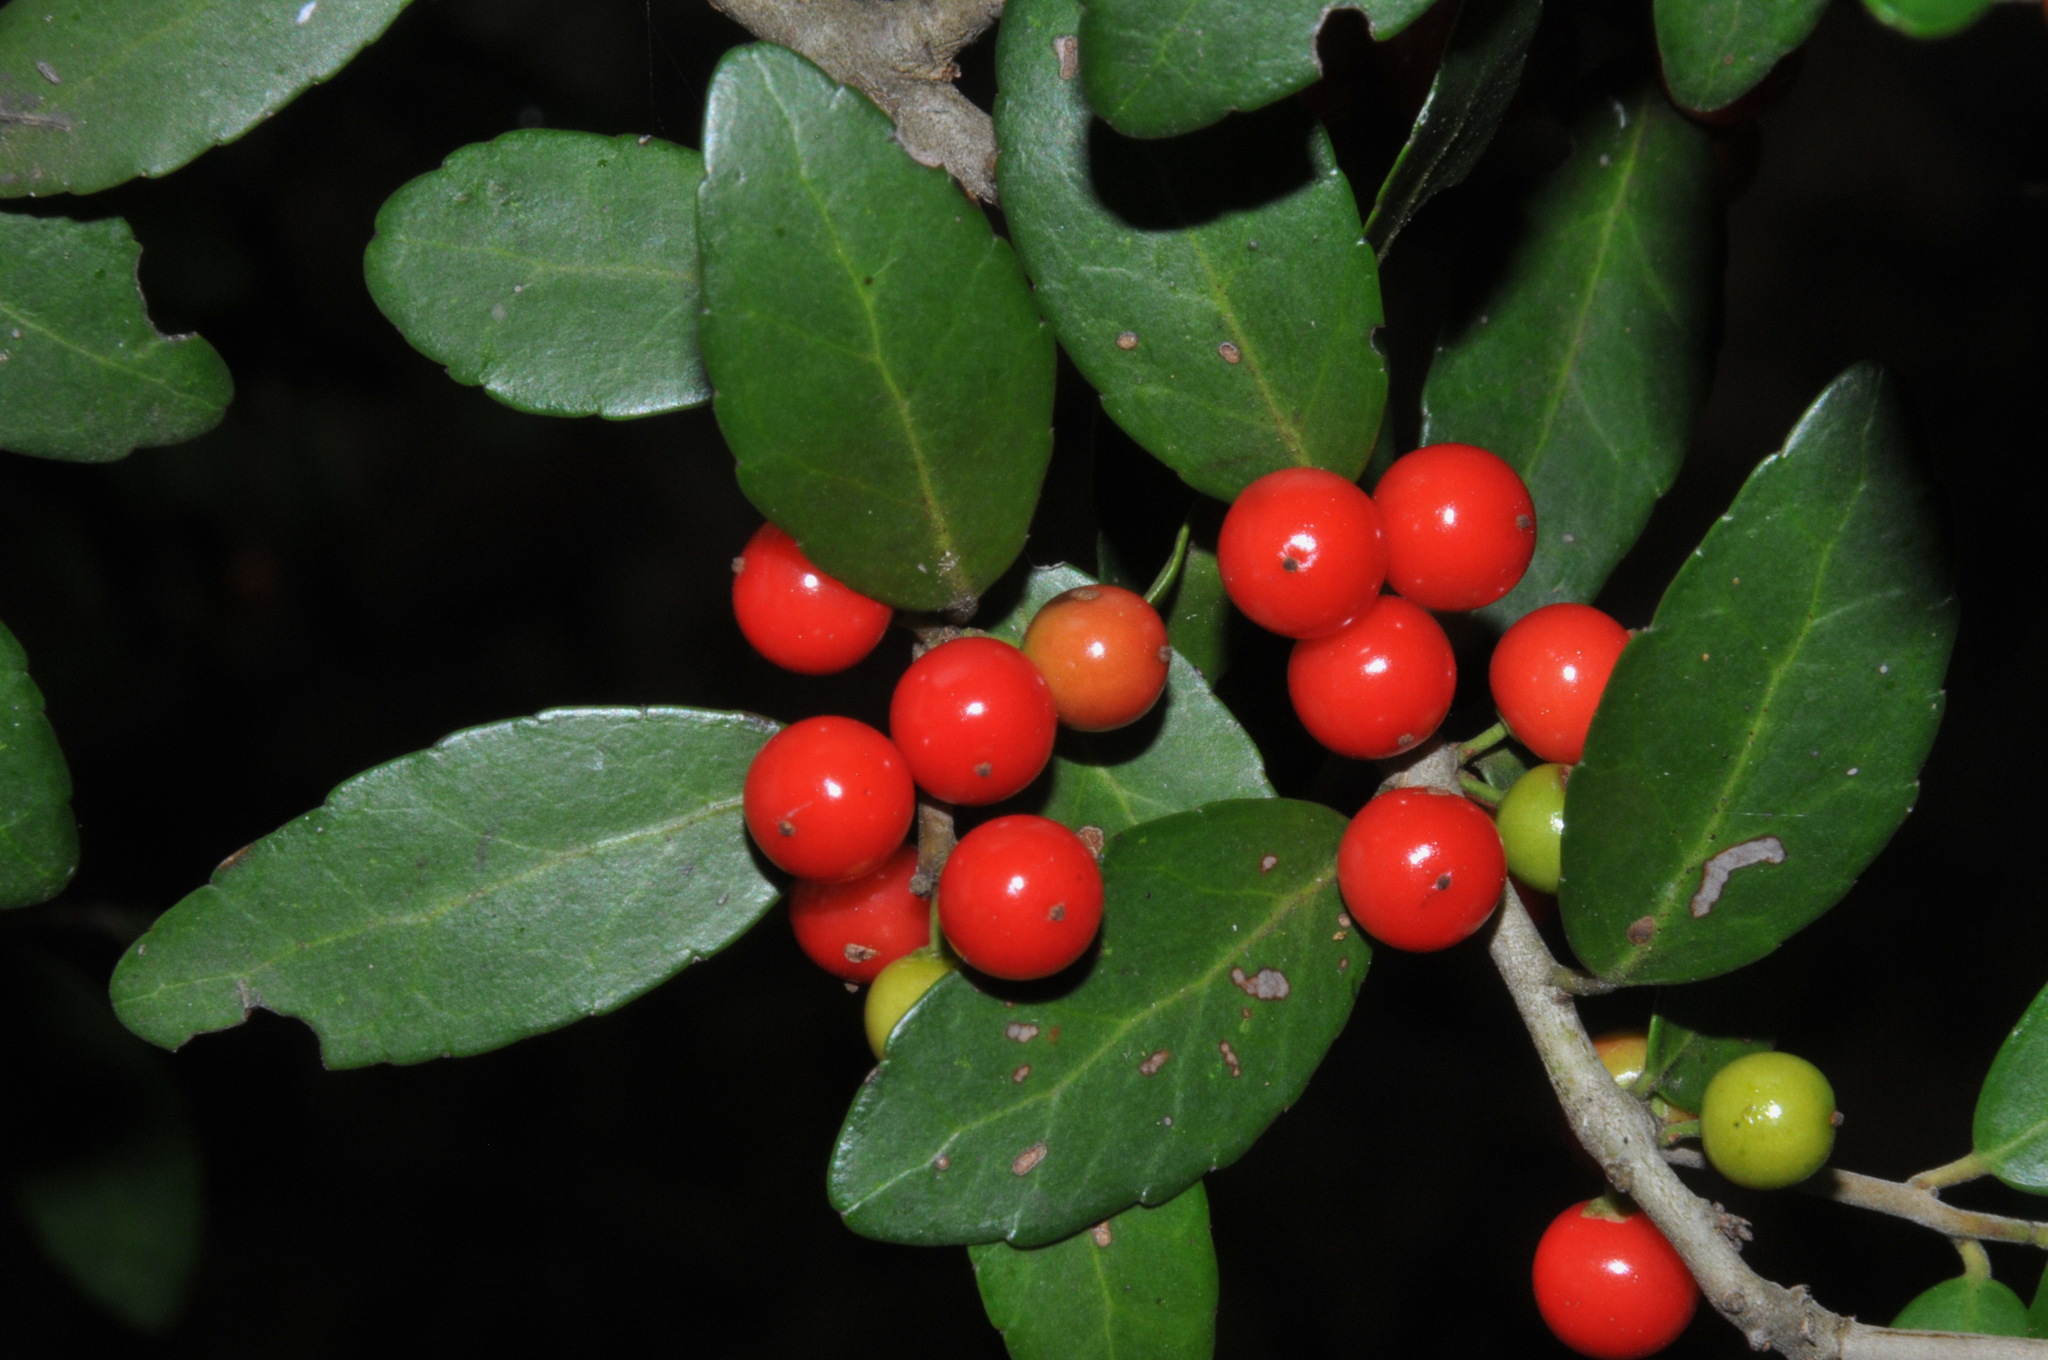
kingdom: Plantae
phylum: Tracheophyta
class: Magnoliopsida
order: Aquifoliales
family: Aquifoliaceae
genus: Ilex
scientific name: Ilex vomitoria
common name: Yaupon holly
